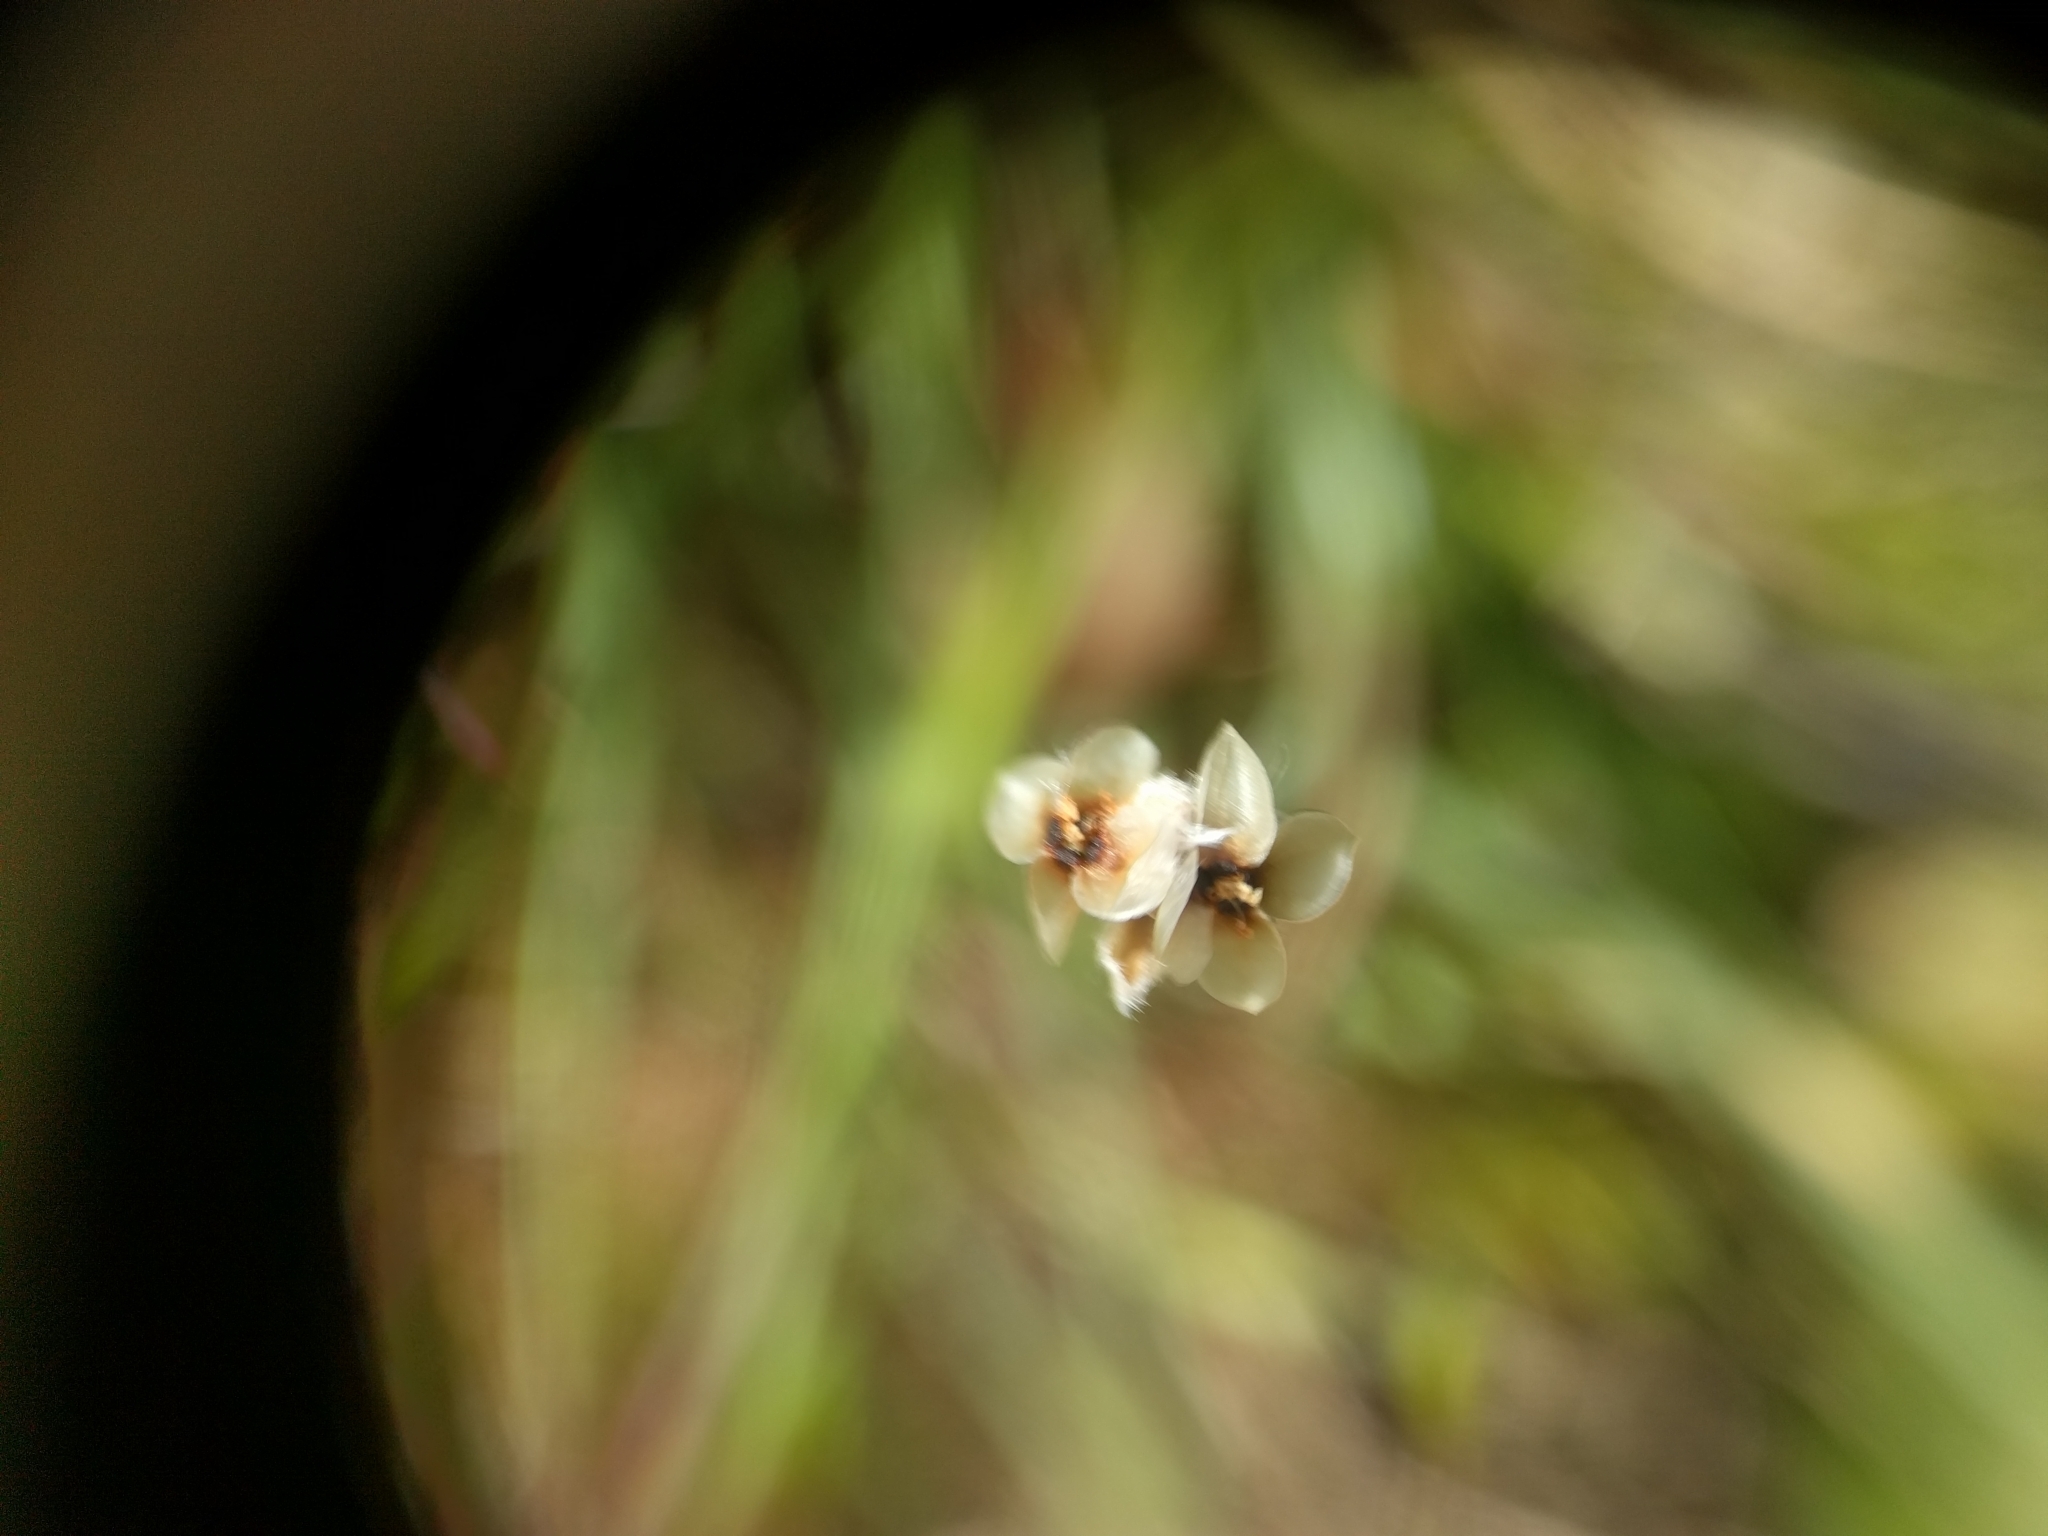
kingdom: Plantae
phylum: Tracheophyta
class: Magnoliopsida
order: Lamiales
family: Plantaginaceae
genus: Plantago
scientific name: Plantago erecta
